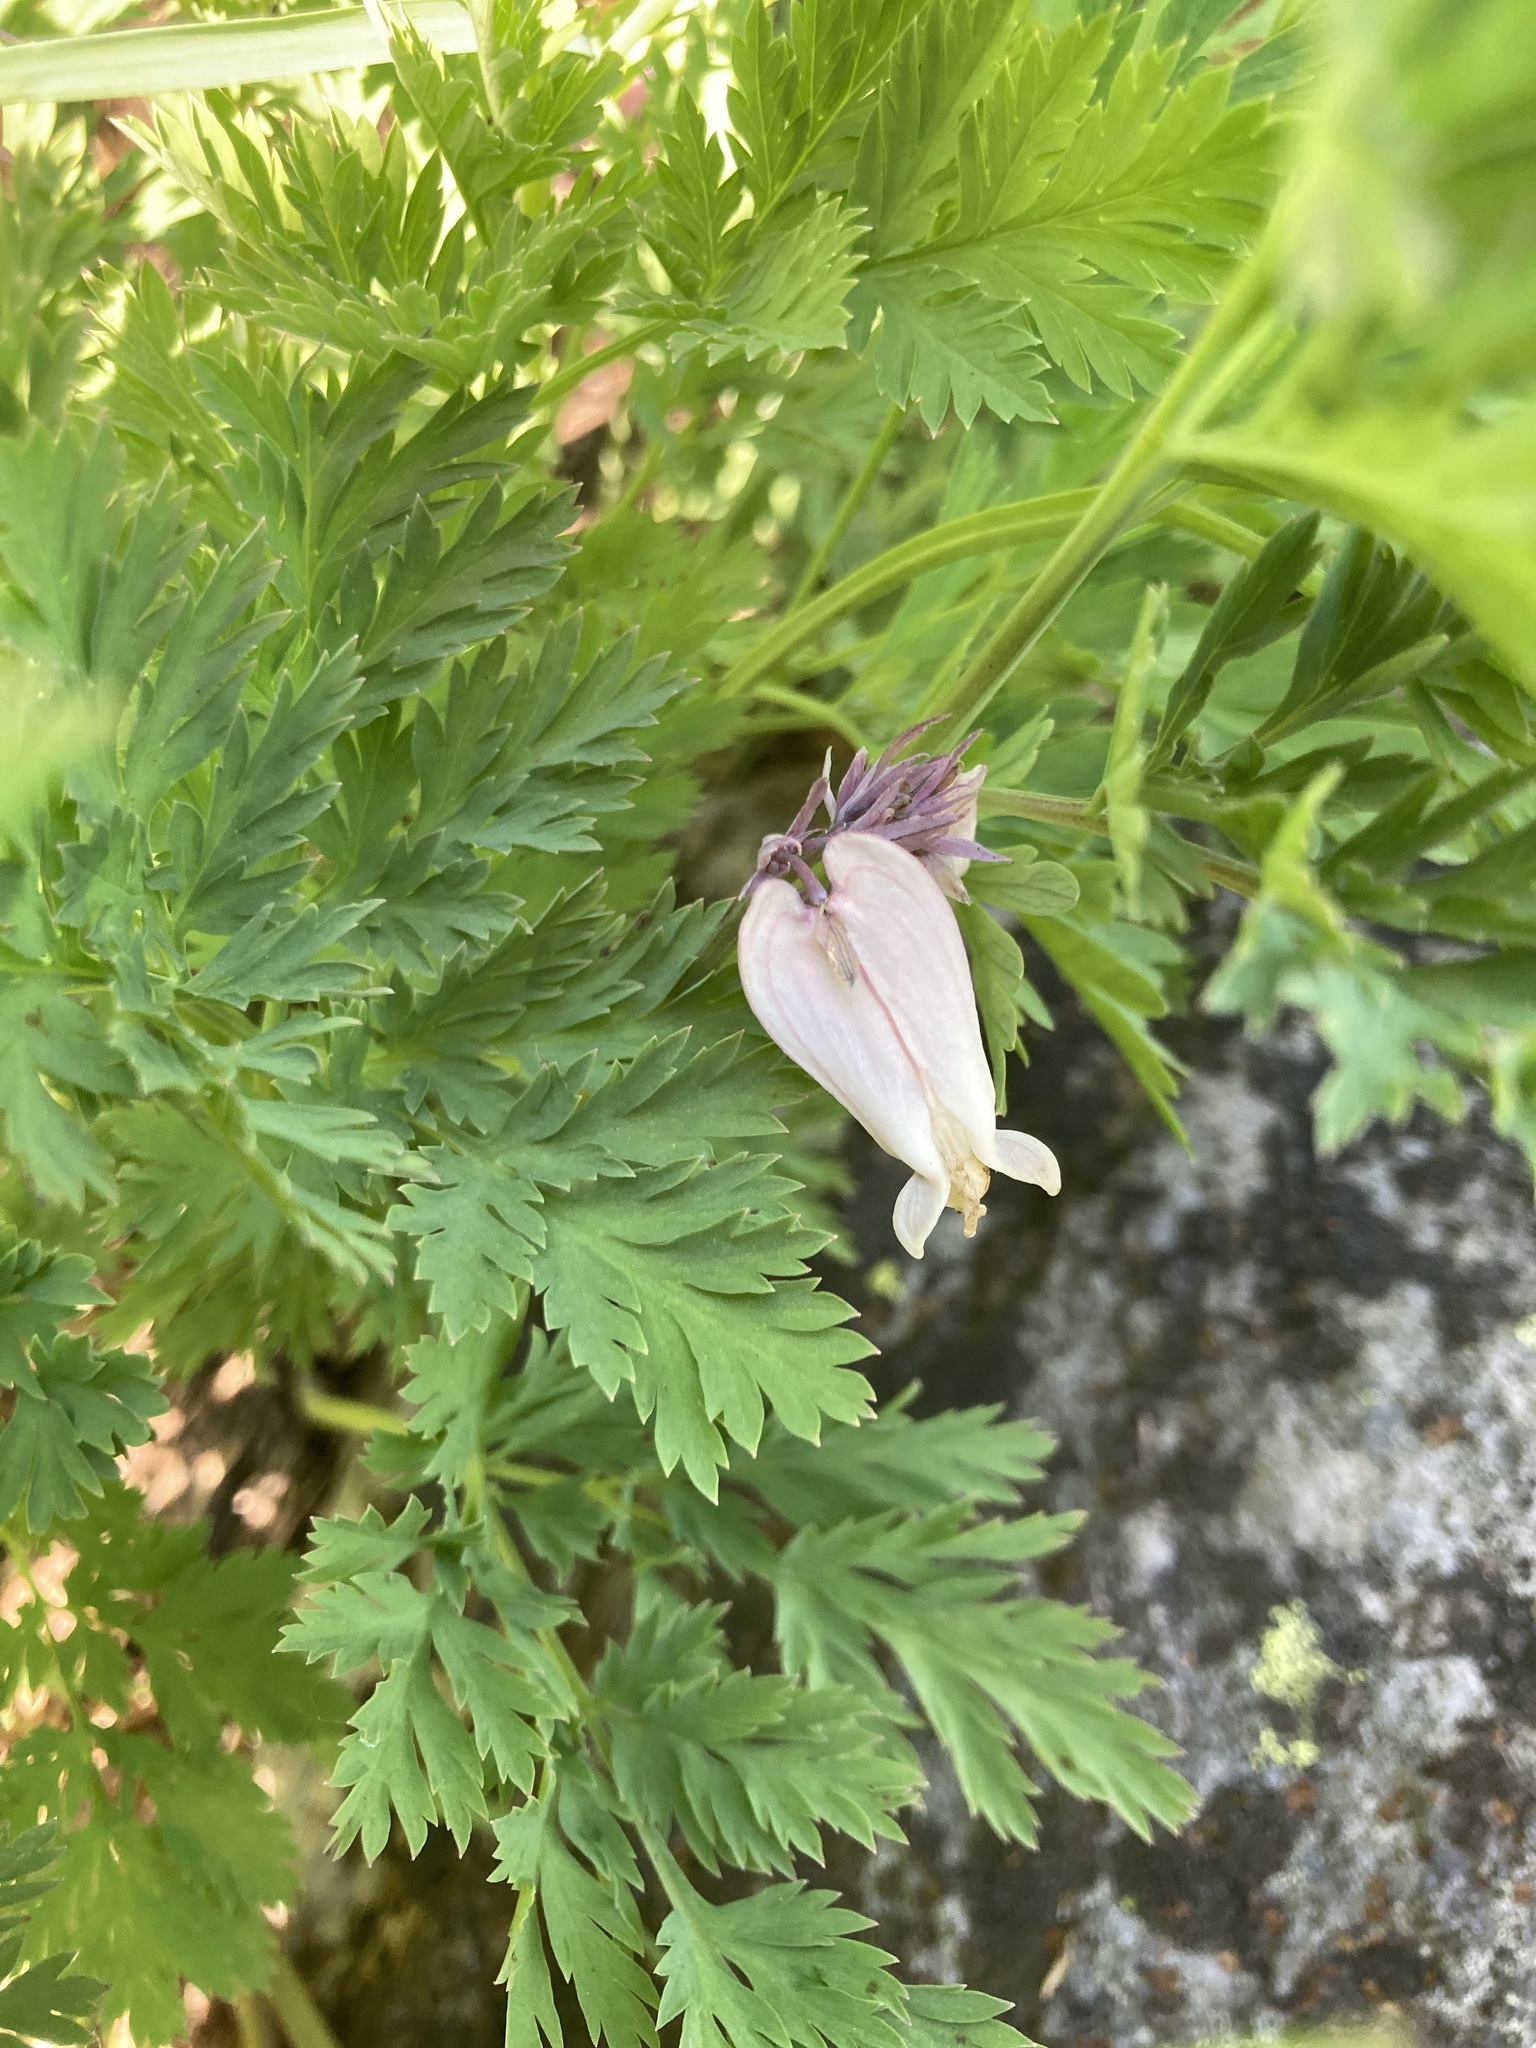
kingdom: Plantae
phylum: Tracheophyta
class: Magnoliopsida
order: Ranunculales
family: Papaveraceae
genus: Dicentra
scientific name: Dicentra formosa
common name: Bleeding-heart
